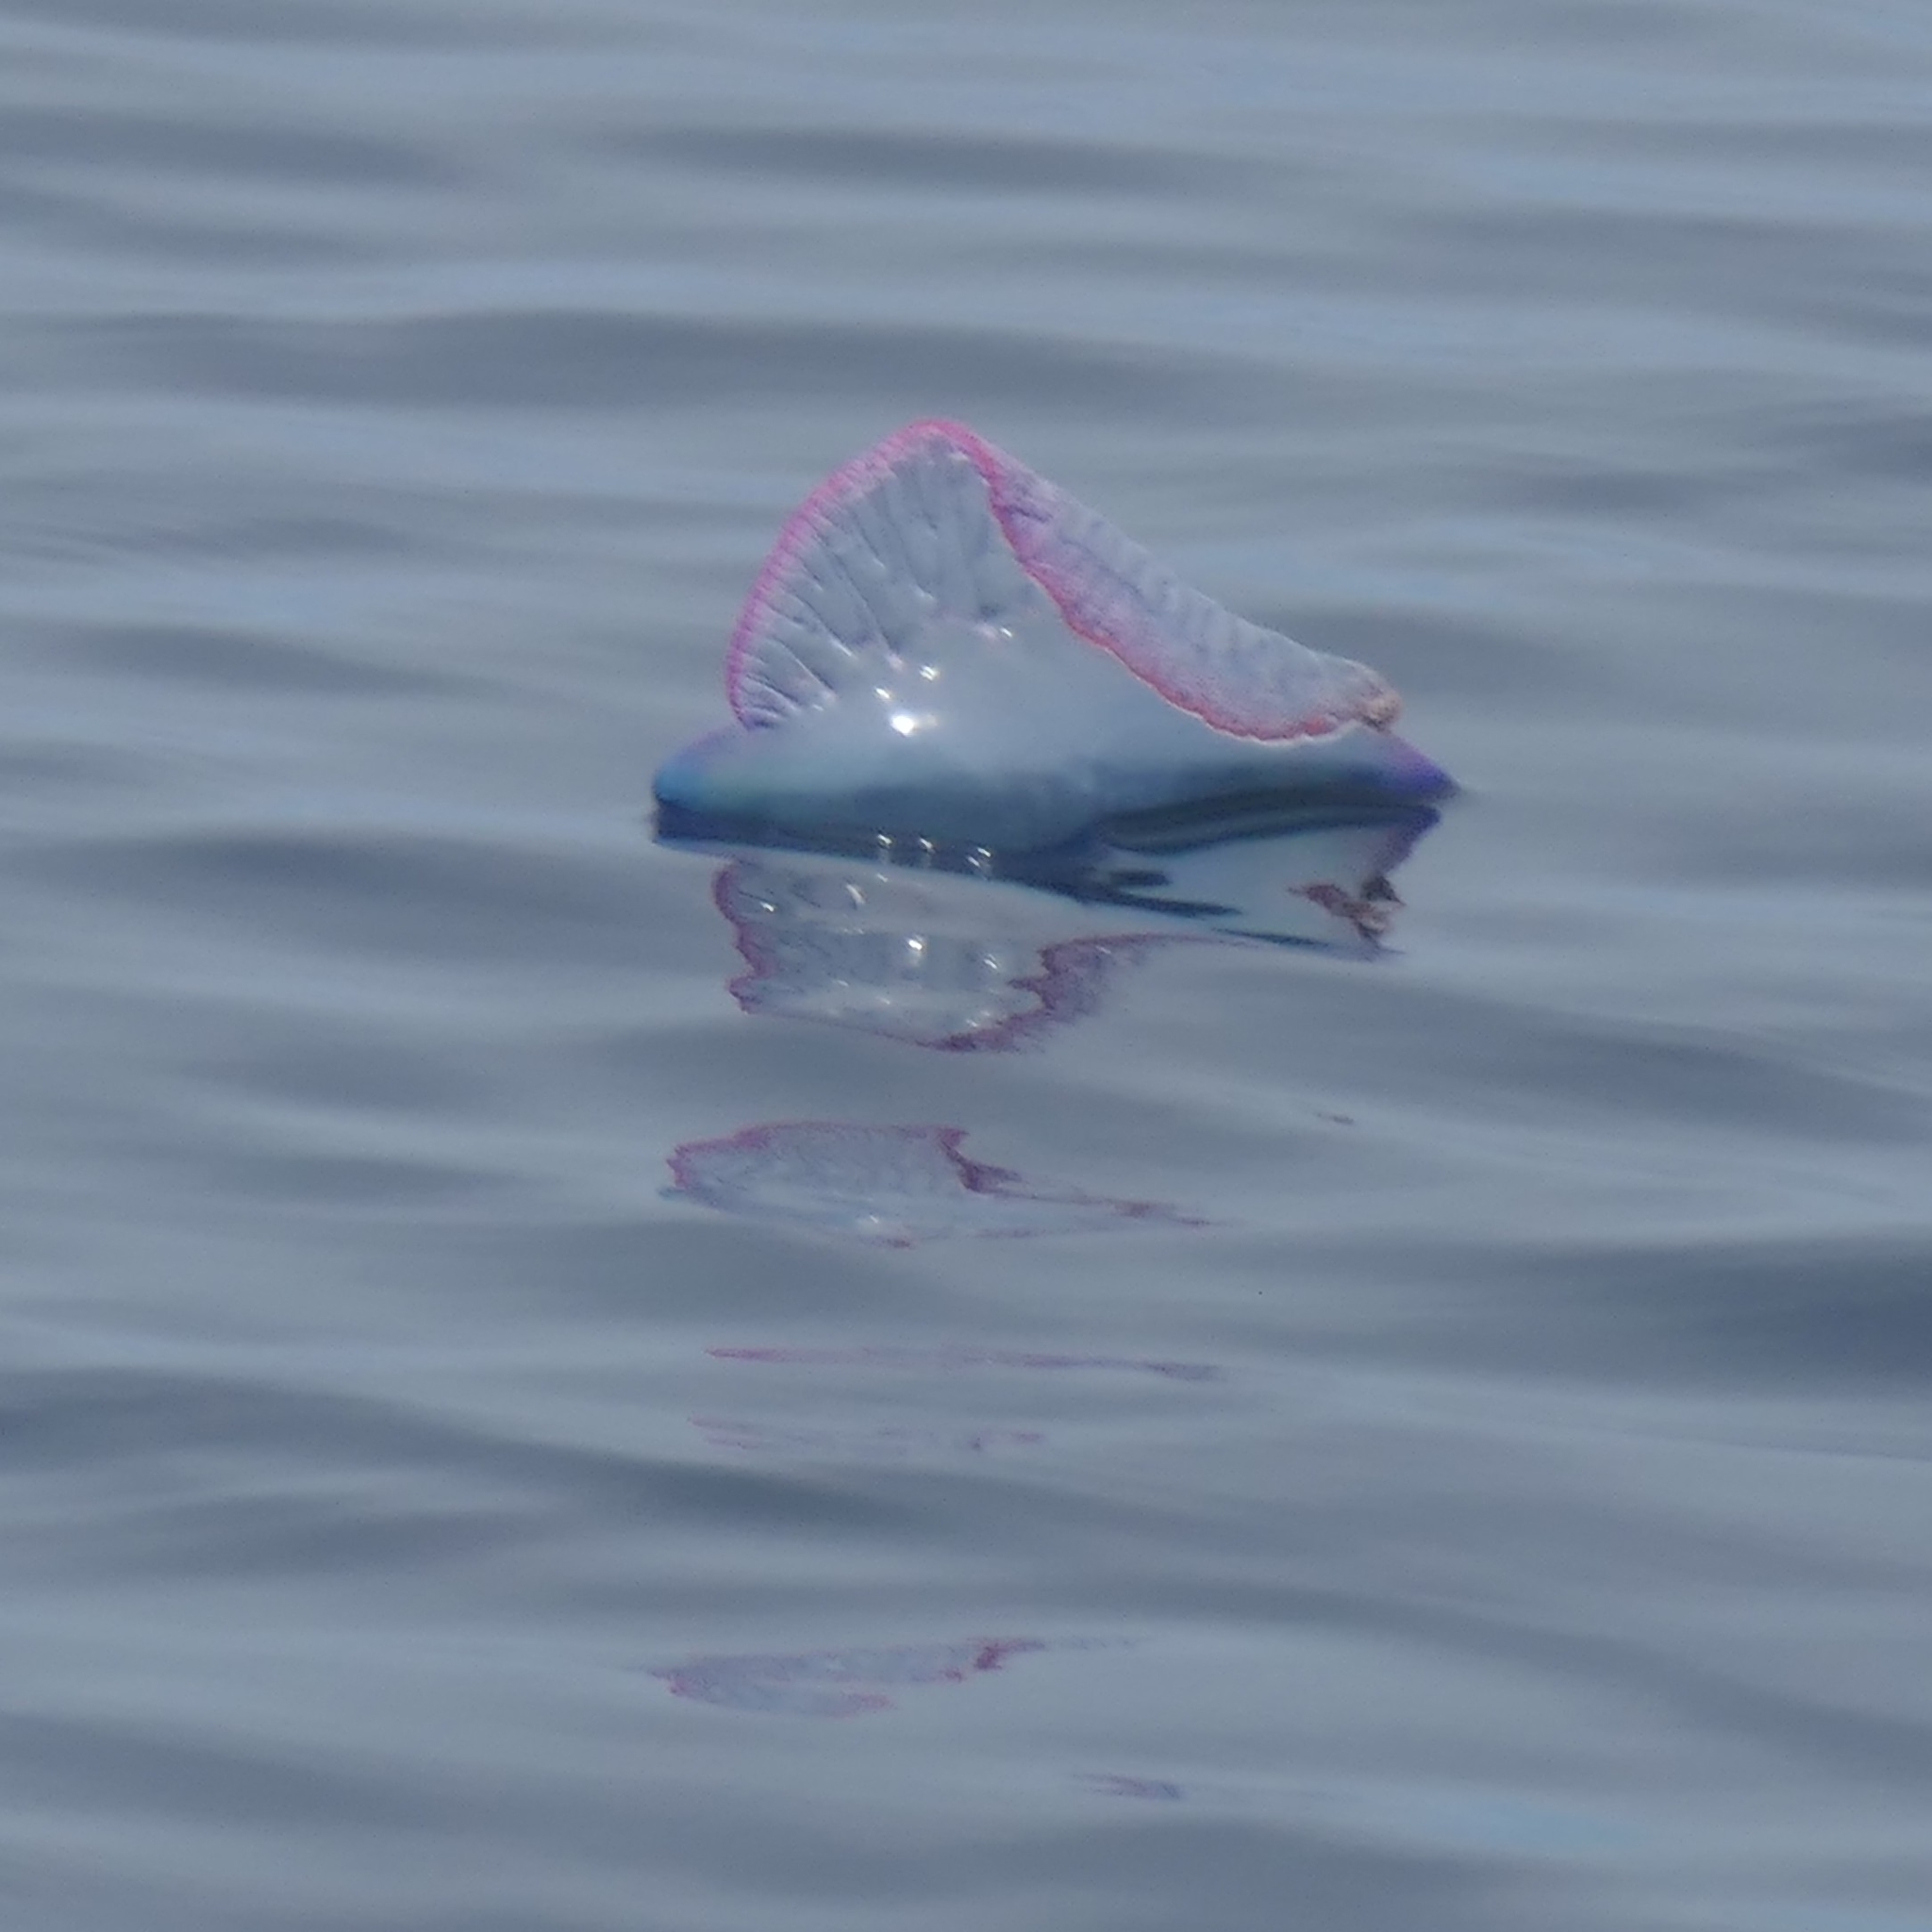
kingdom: Animalia
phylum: Cnidaria
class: Hydrozoa
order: Siphonophorae
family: Physaliidae
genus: Physalia
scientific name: Physalia physalis
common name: Portuguese man-of-war
